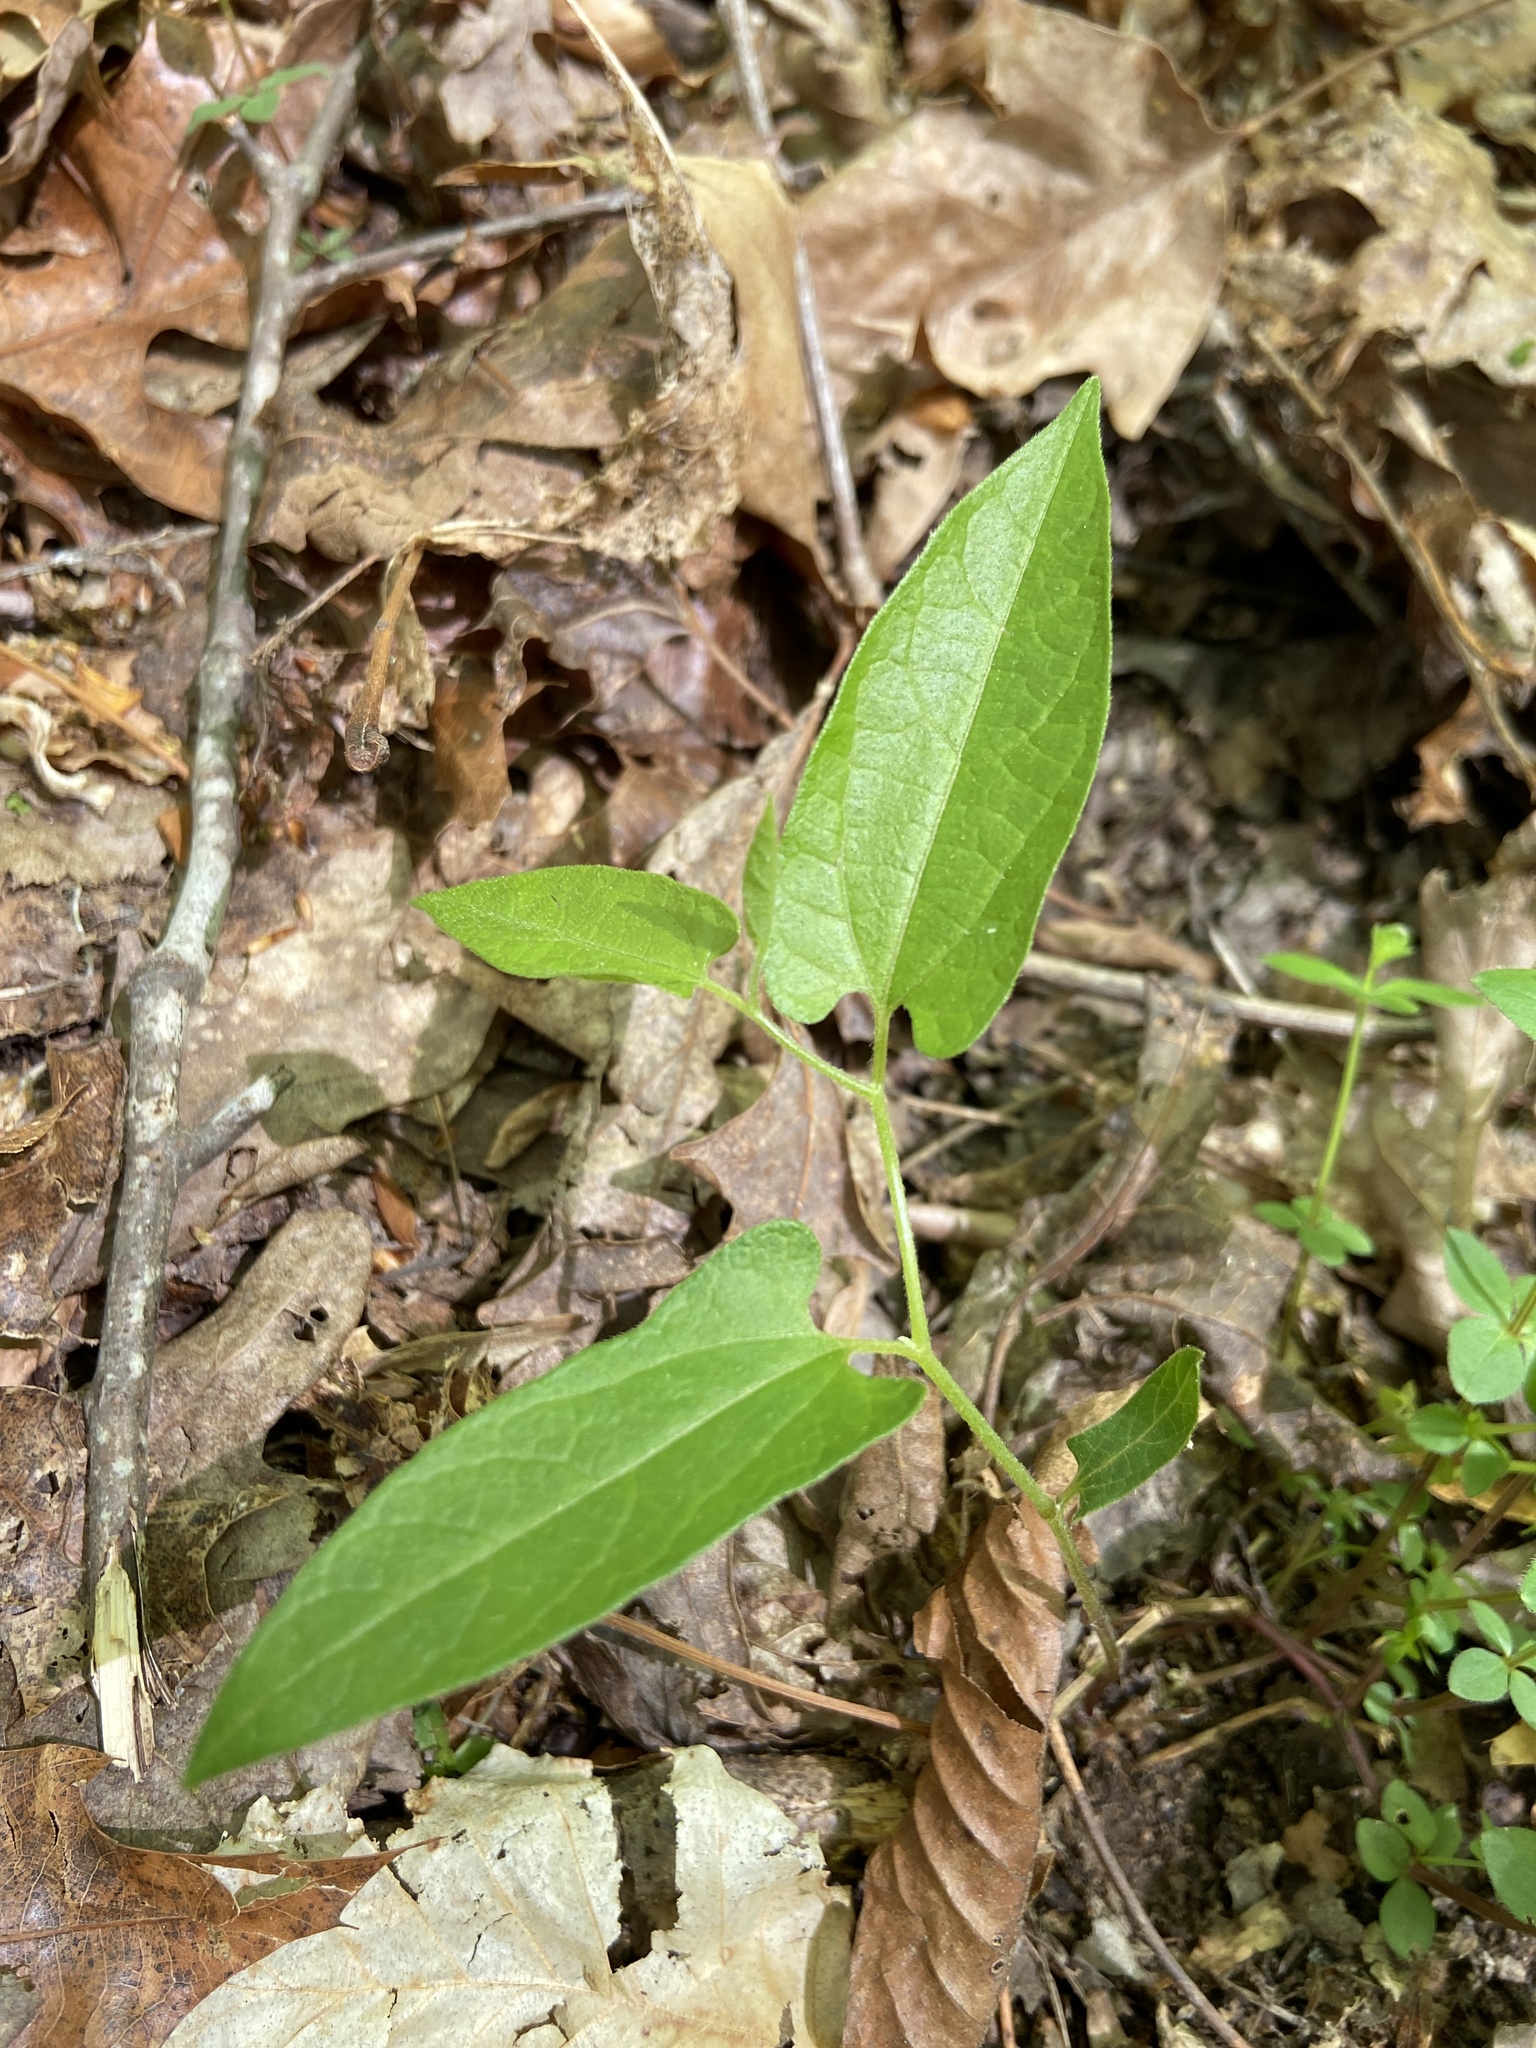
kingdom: Plantae
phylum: Tracheophyta
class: Magnoliopsida
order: Piperales
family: Aristolochiaceae
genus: Endodeca
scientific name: Endodeca serpentaria
